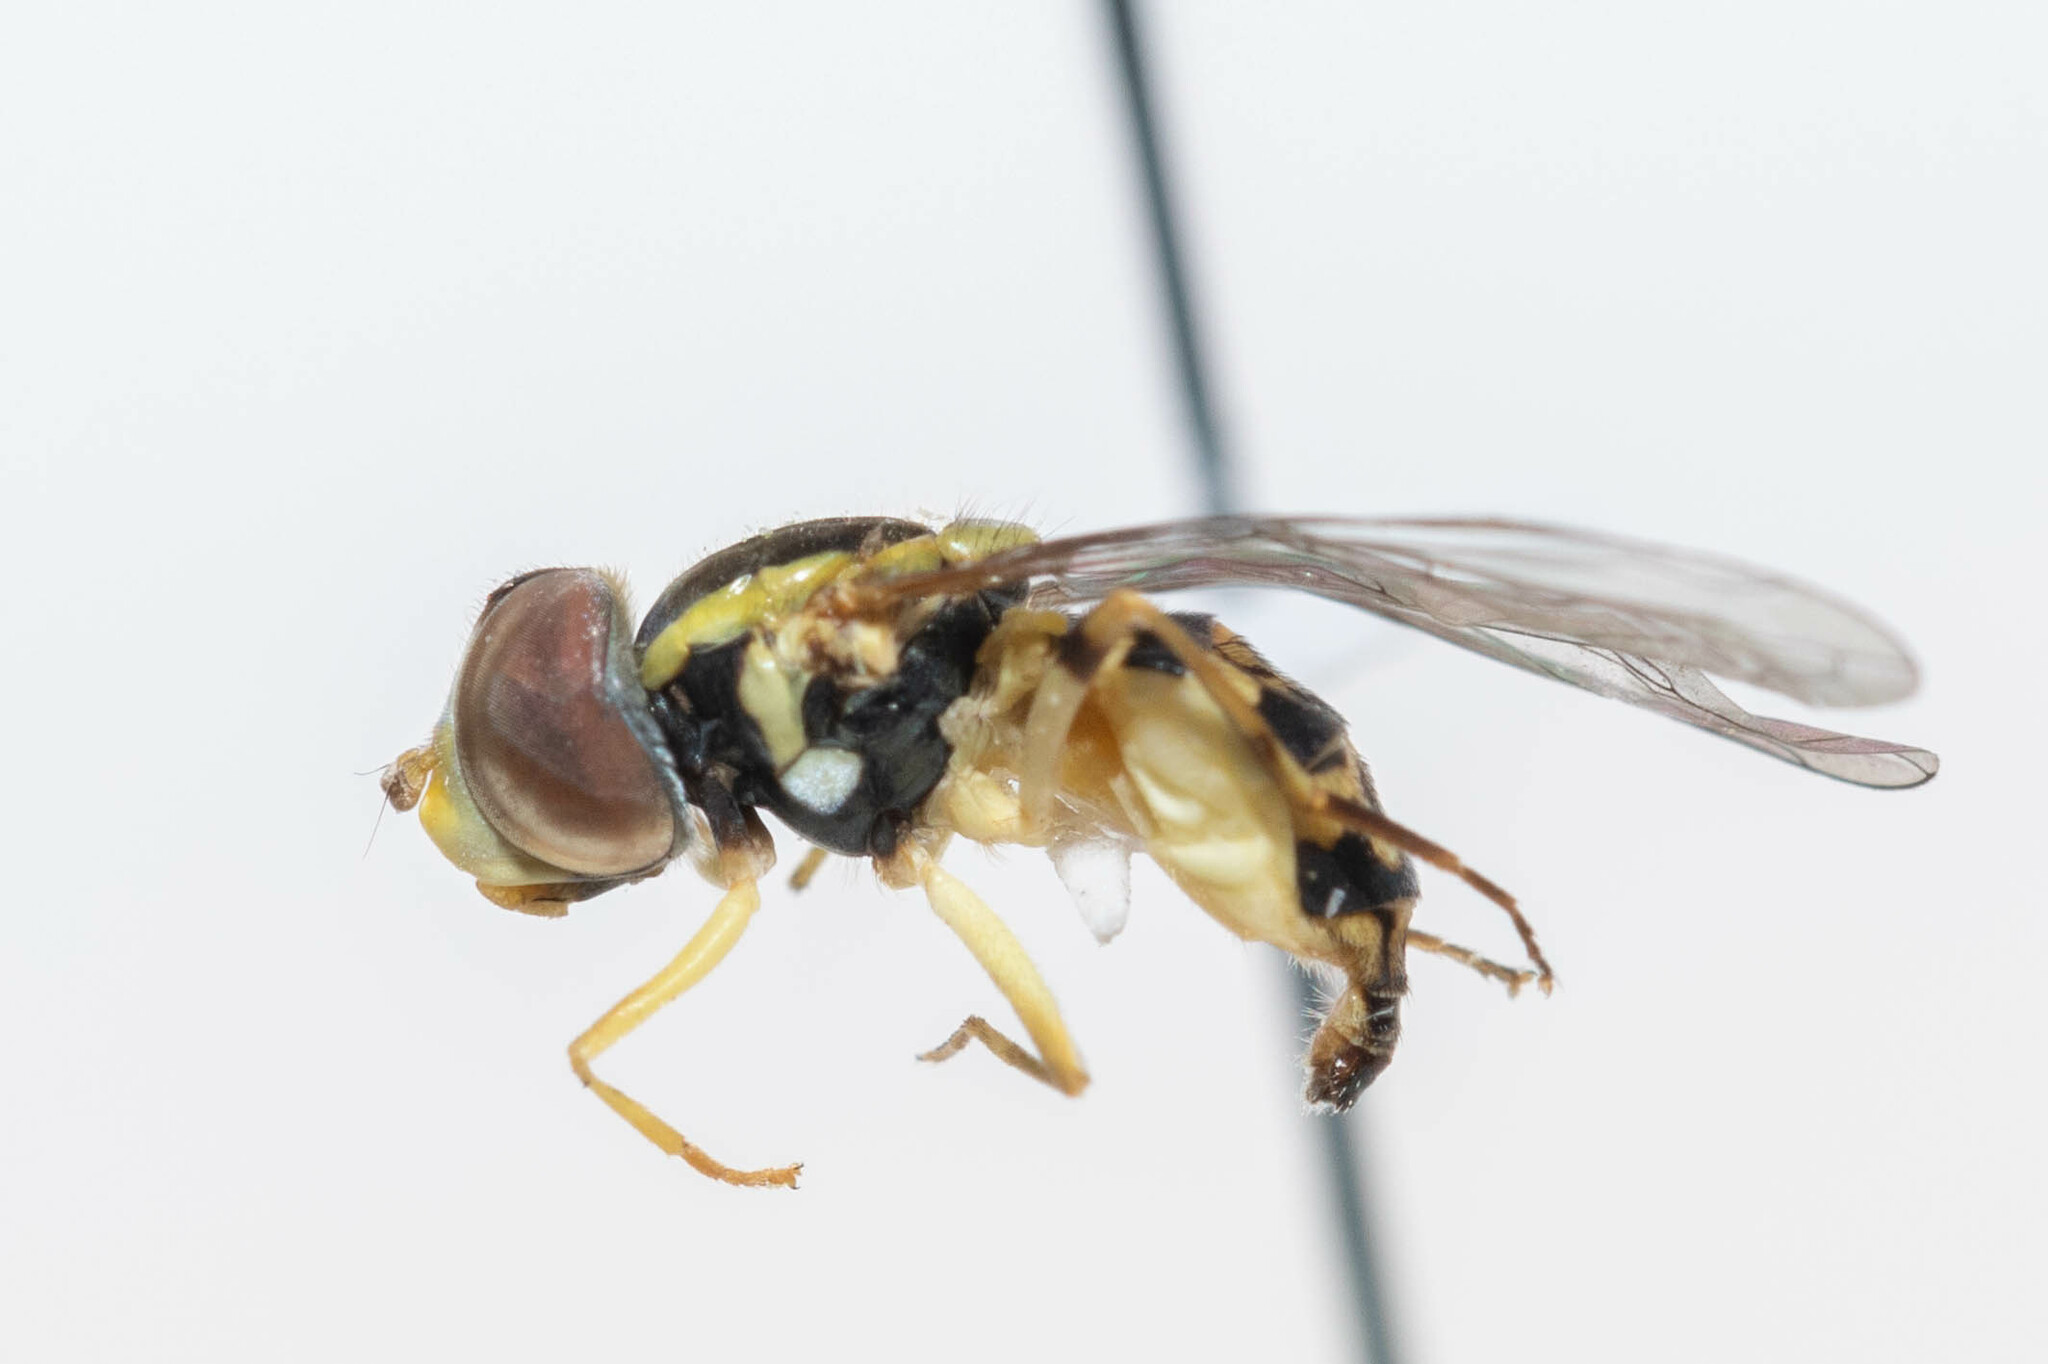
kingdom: Animalia
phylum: Arthropoda
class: Insecta
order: Diptera
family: Syrphidae
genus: Toxomerus
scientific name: Toxomerus geminatus
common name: Eastern calligrapher
